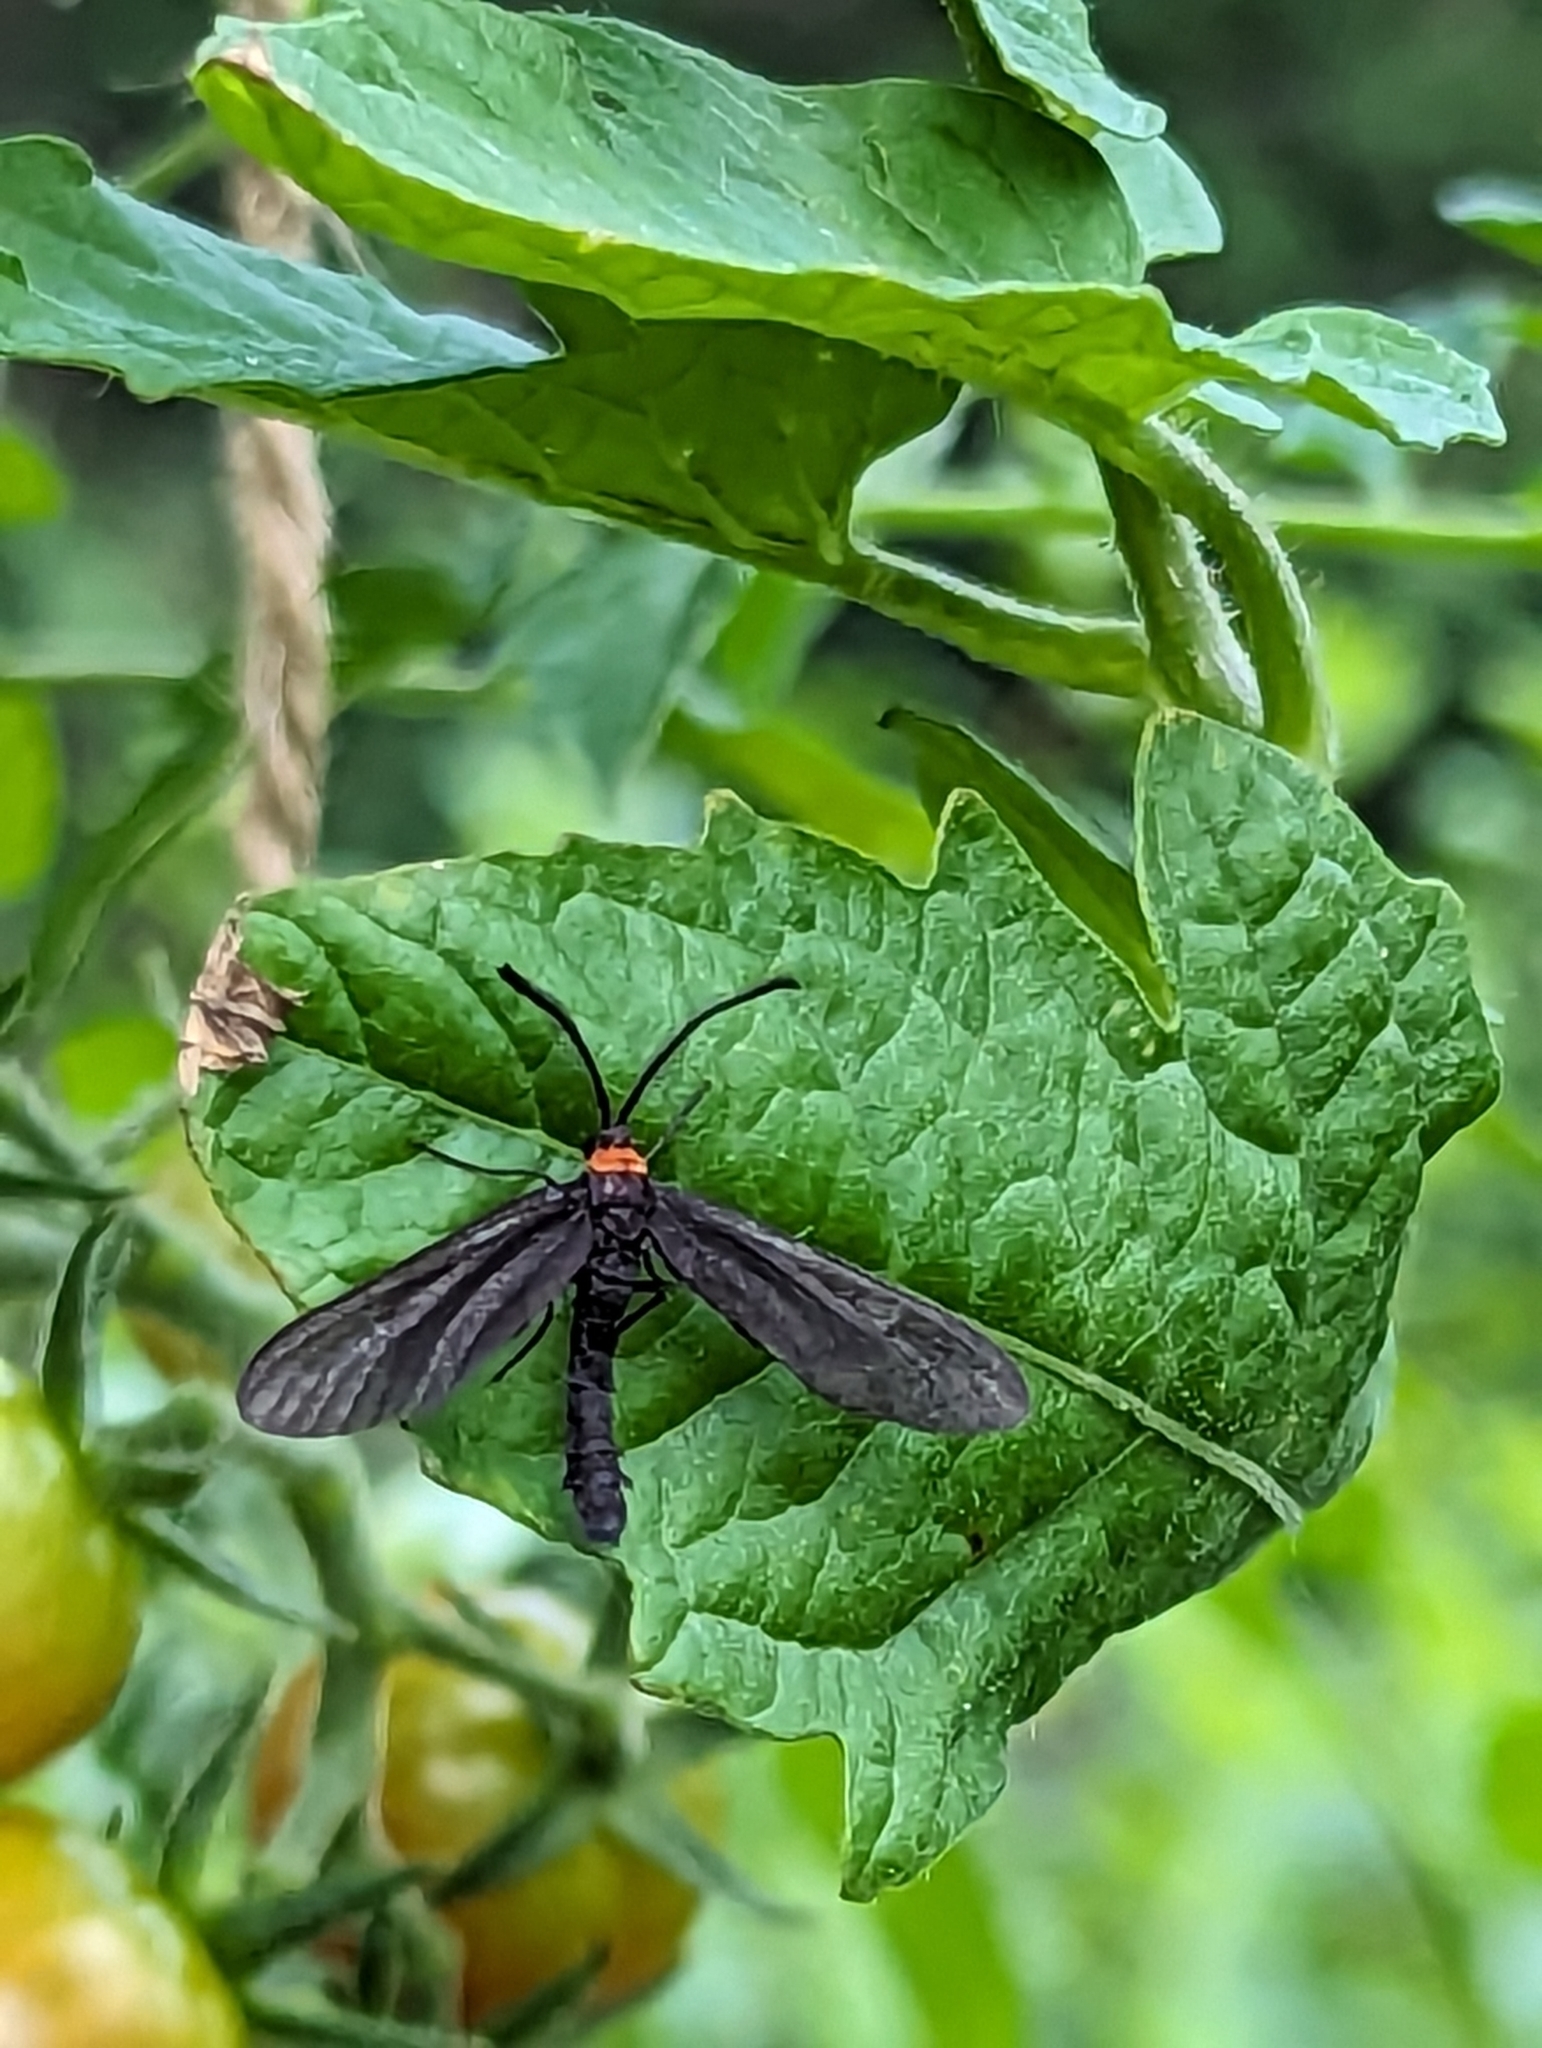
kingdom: Animalia
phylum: Arthropoda
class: Insecta
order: Lepidoptera
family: Zygaenidae
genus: Harrisina
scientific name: Harrisina americana
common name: Grapeleaf skeletonizer moth
